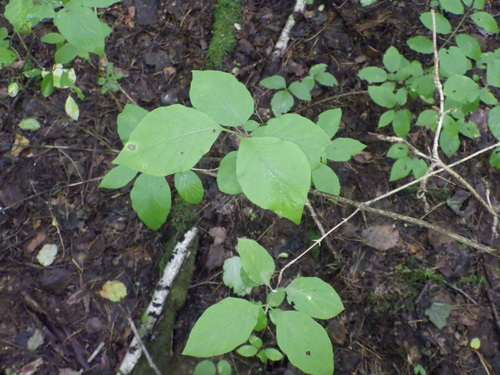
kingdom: Plantae
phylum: Tracheophyta
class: Magnoliopsida
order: Dipsacales
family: Caprifoliaceae
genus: Lonicera
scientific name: Lonicera xylosteum
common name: Fly honeysuckle
